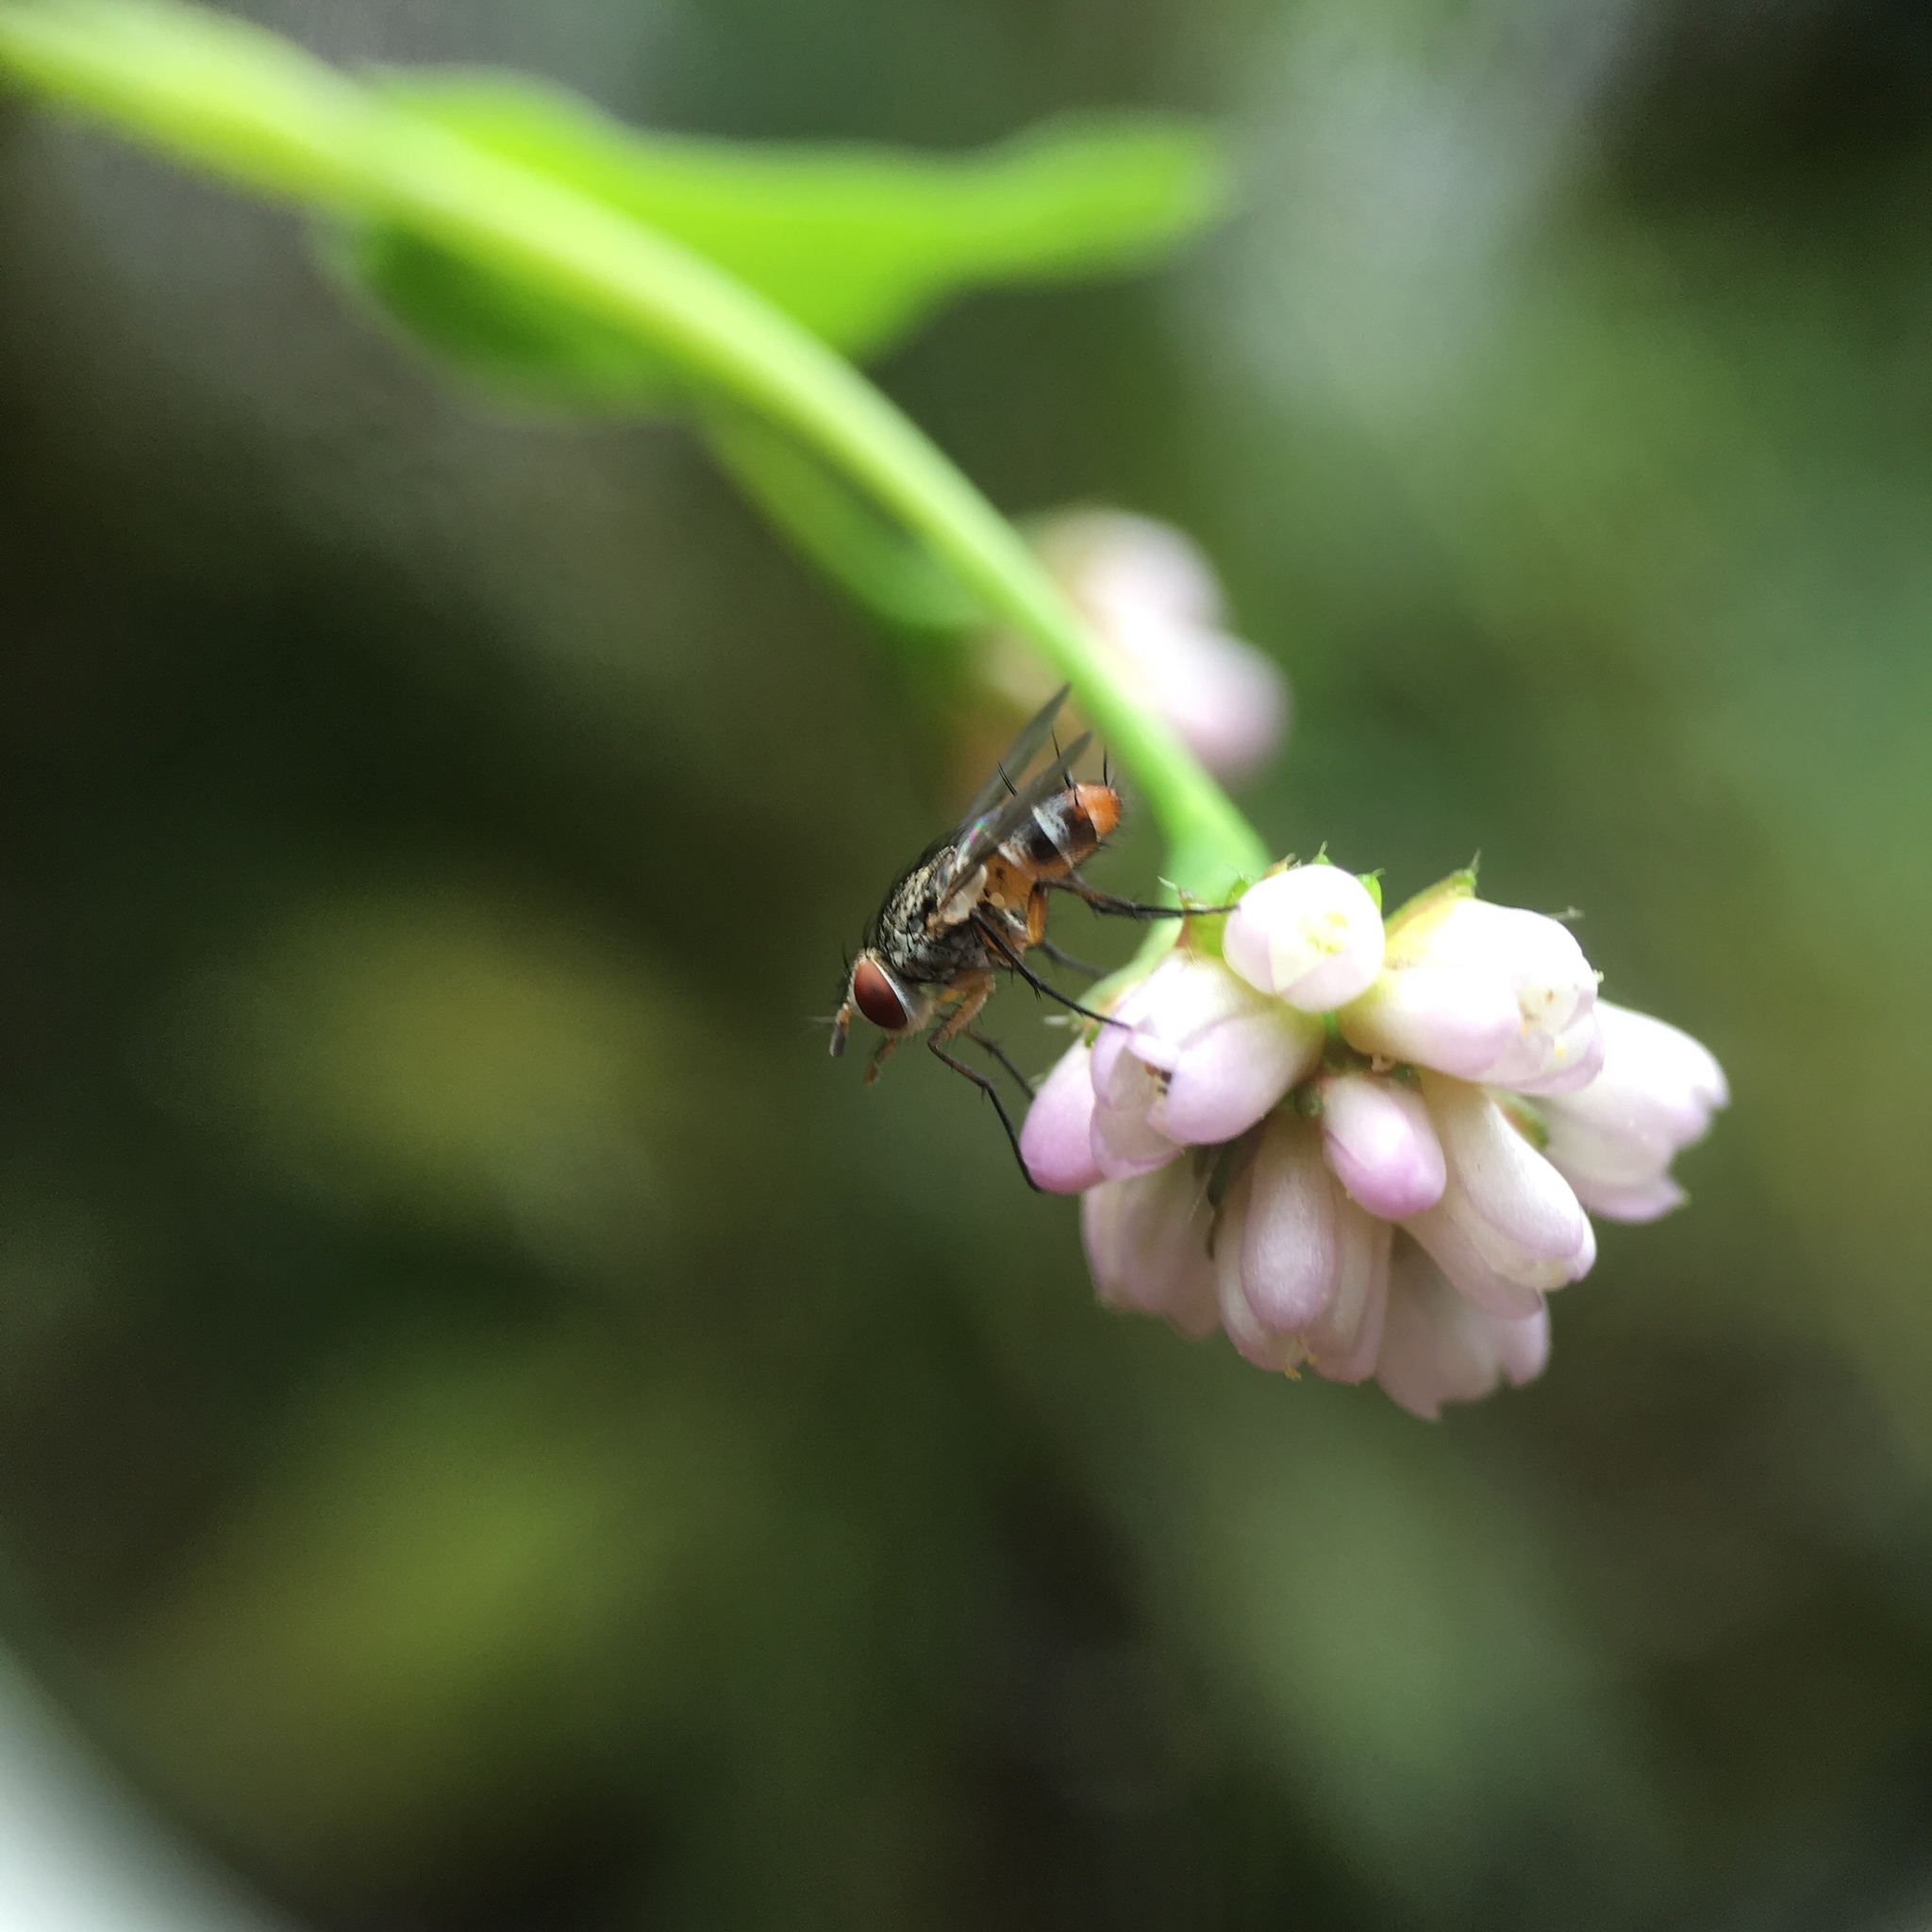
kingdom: Plantae
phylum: Tracheophyta
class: Magnoliopsida
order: Caryophyllales
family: Polygonaceae
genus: Persicaria
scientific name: Persicaria sagittata
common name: American tearthumb
